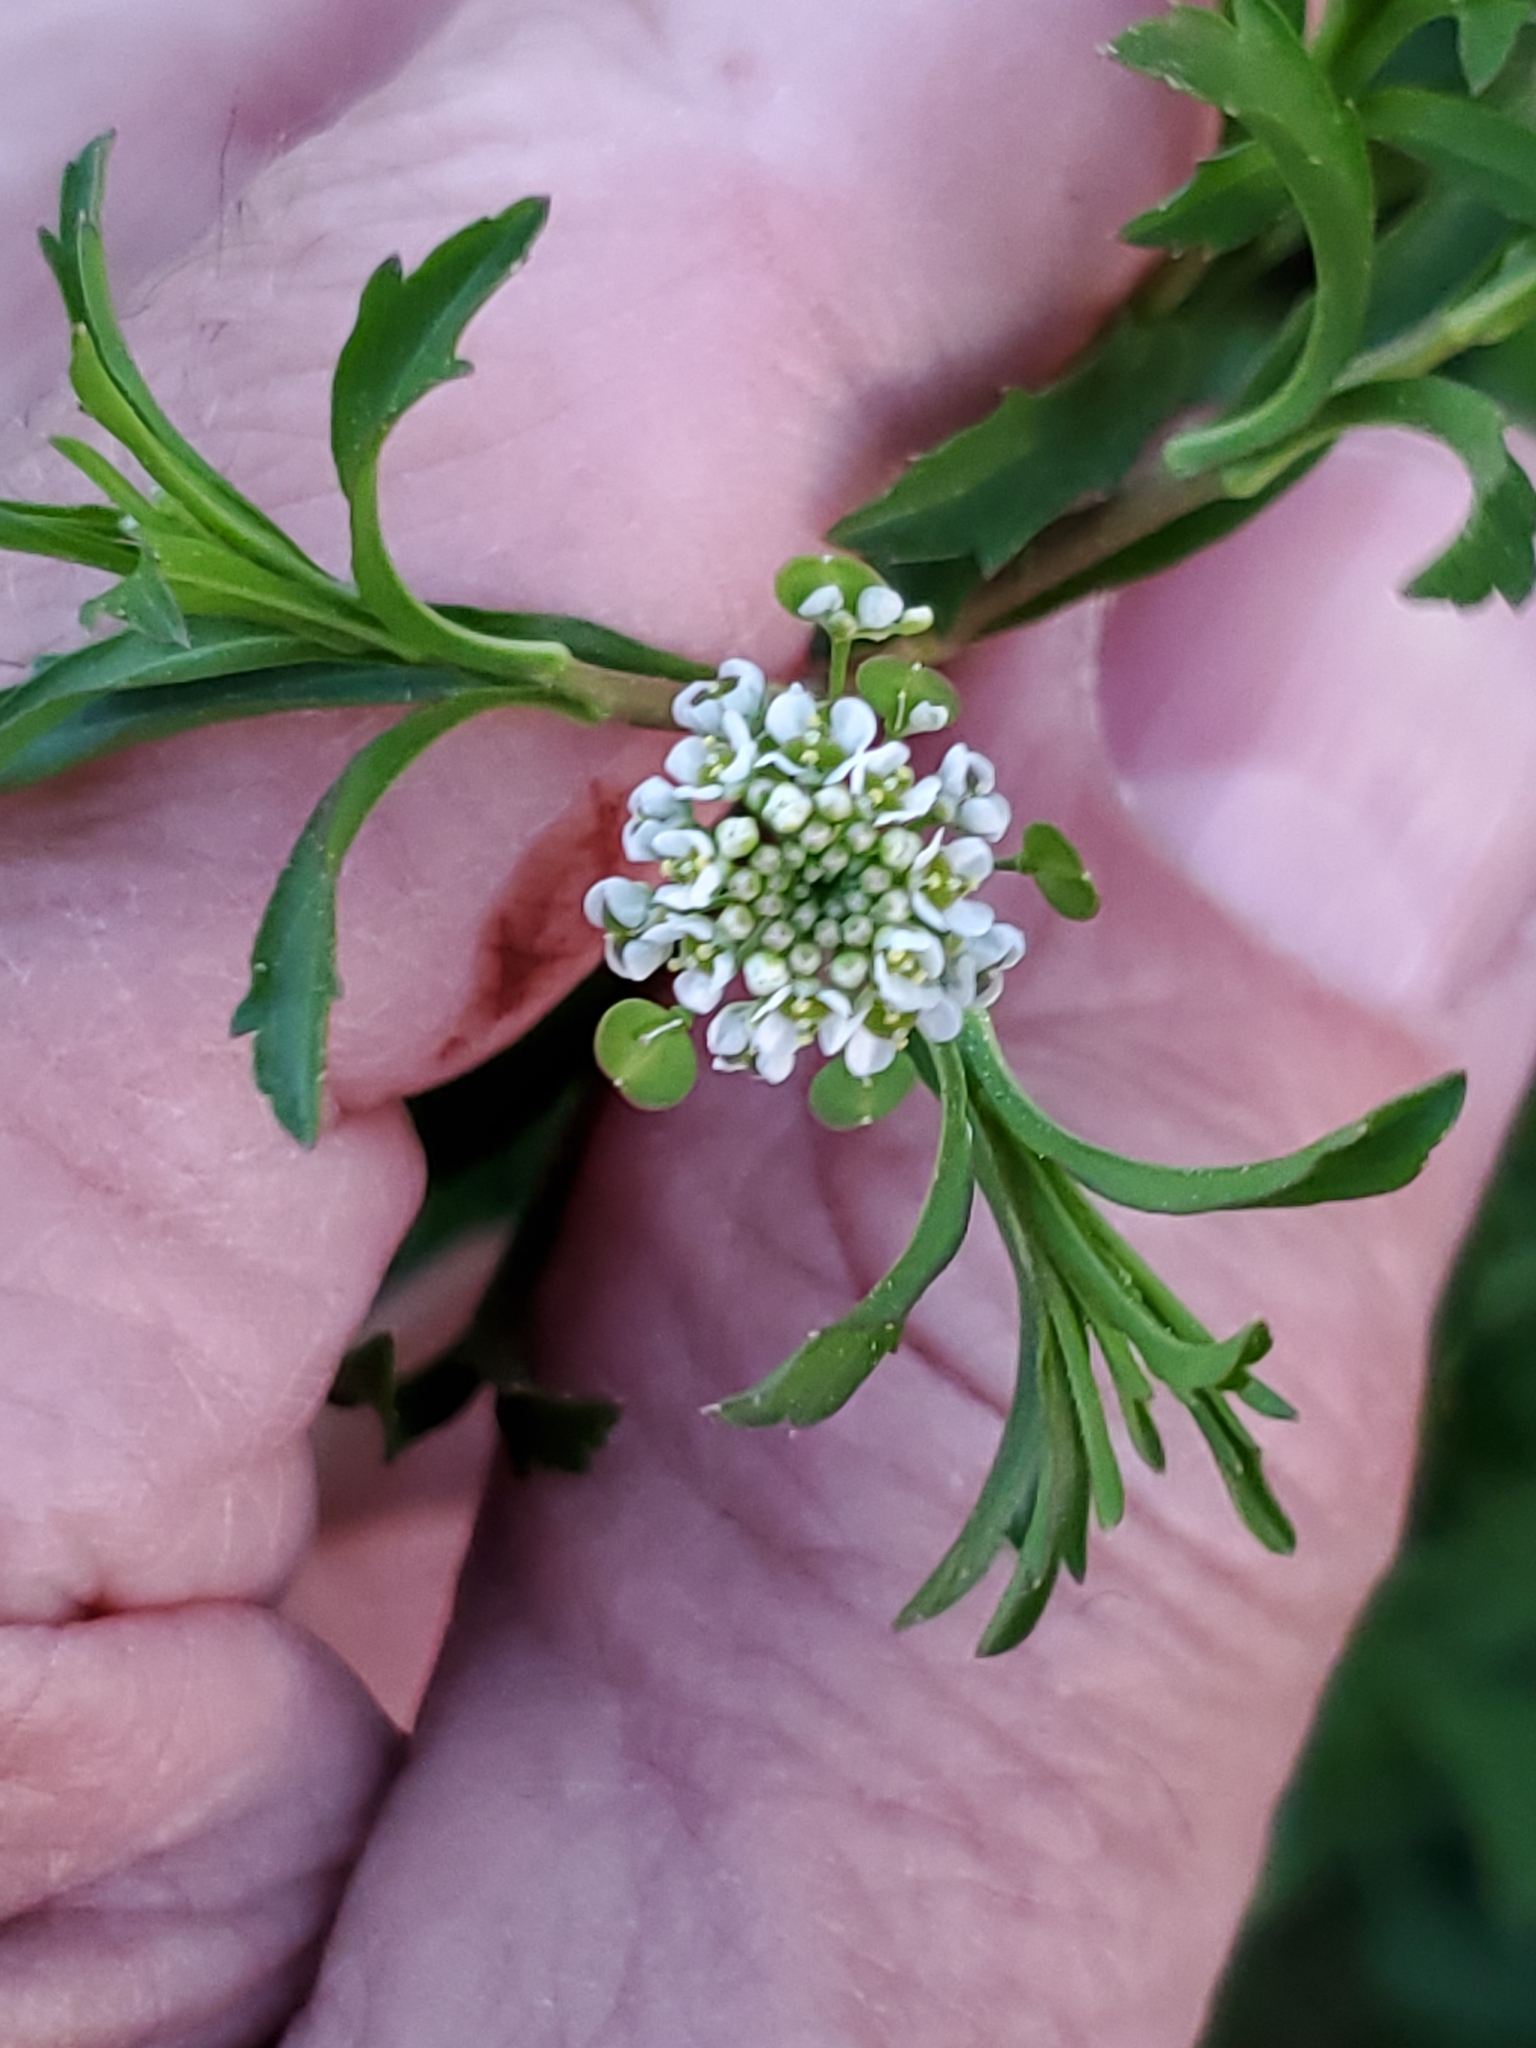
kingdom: Plantae
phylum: Tracheophyta
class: Magnoliopsida
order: Brassicales
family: Brassicaceae
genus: Lepidium
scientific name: Lepidium virginicum
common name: Least pepperwort
